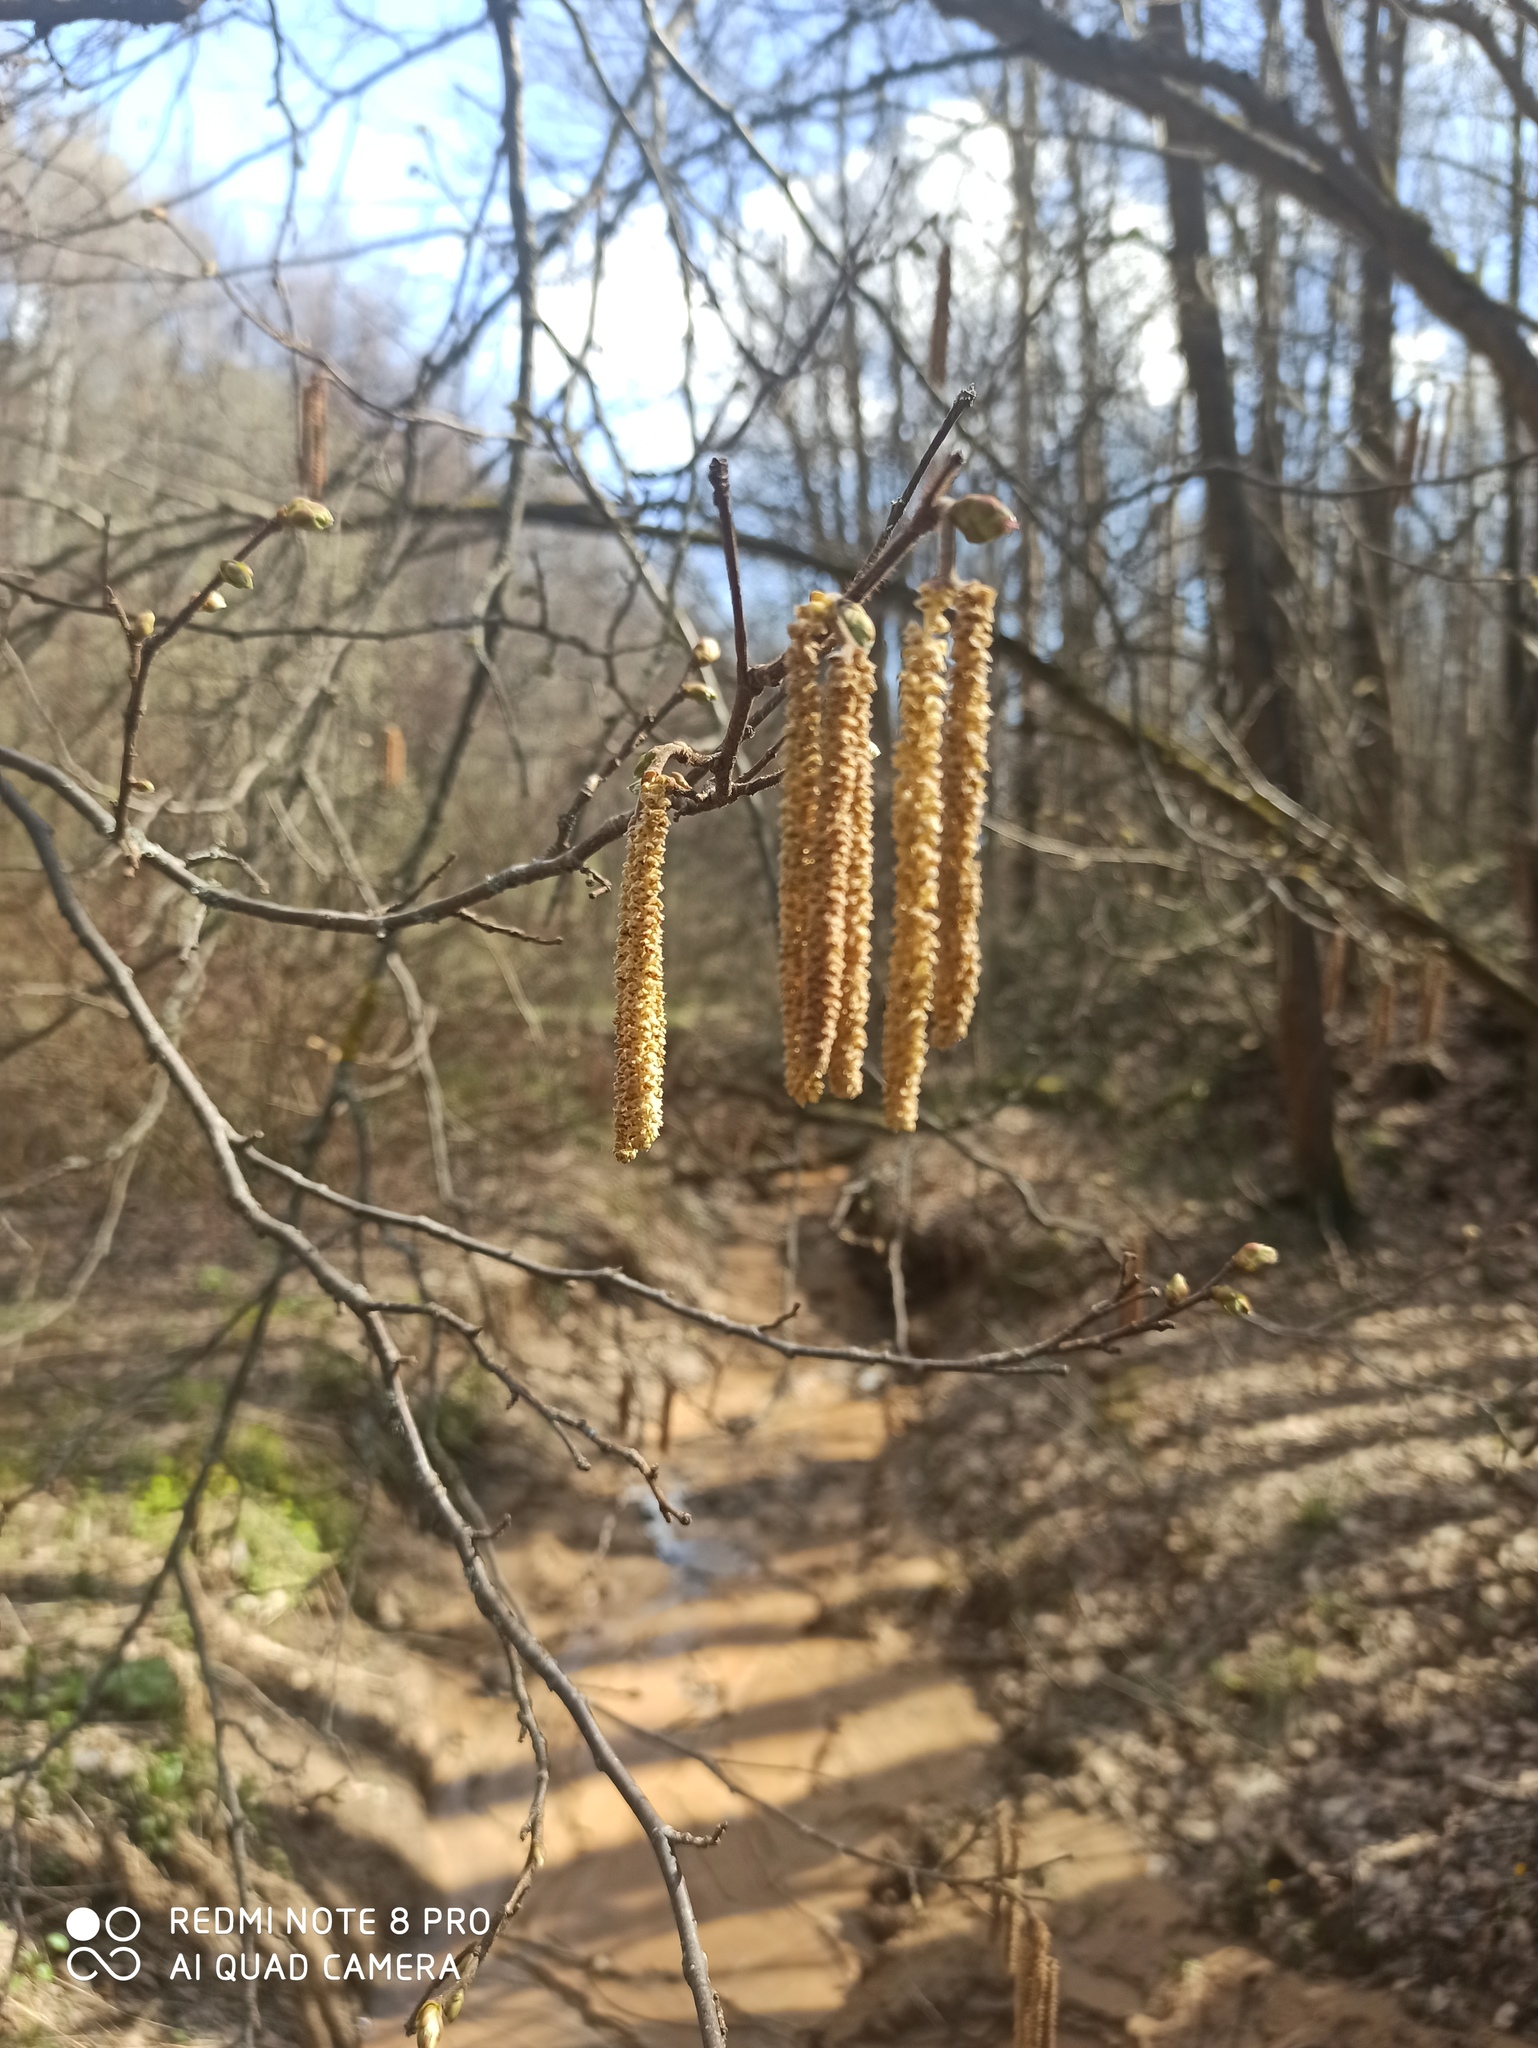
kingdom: Plantae
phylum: Tracheophyta
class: Magnoliopsida
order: Fagales
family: Betulaceae
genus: Corylus
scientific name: Corylus avellana
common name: European hazel
